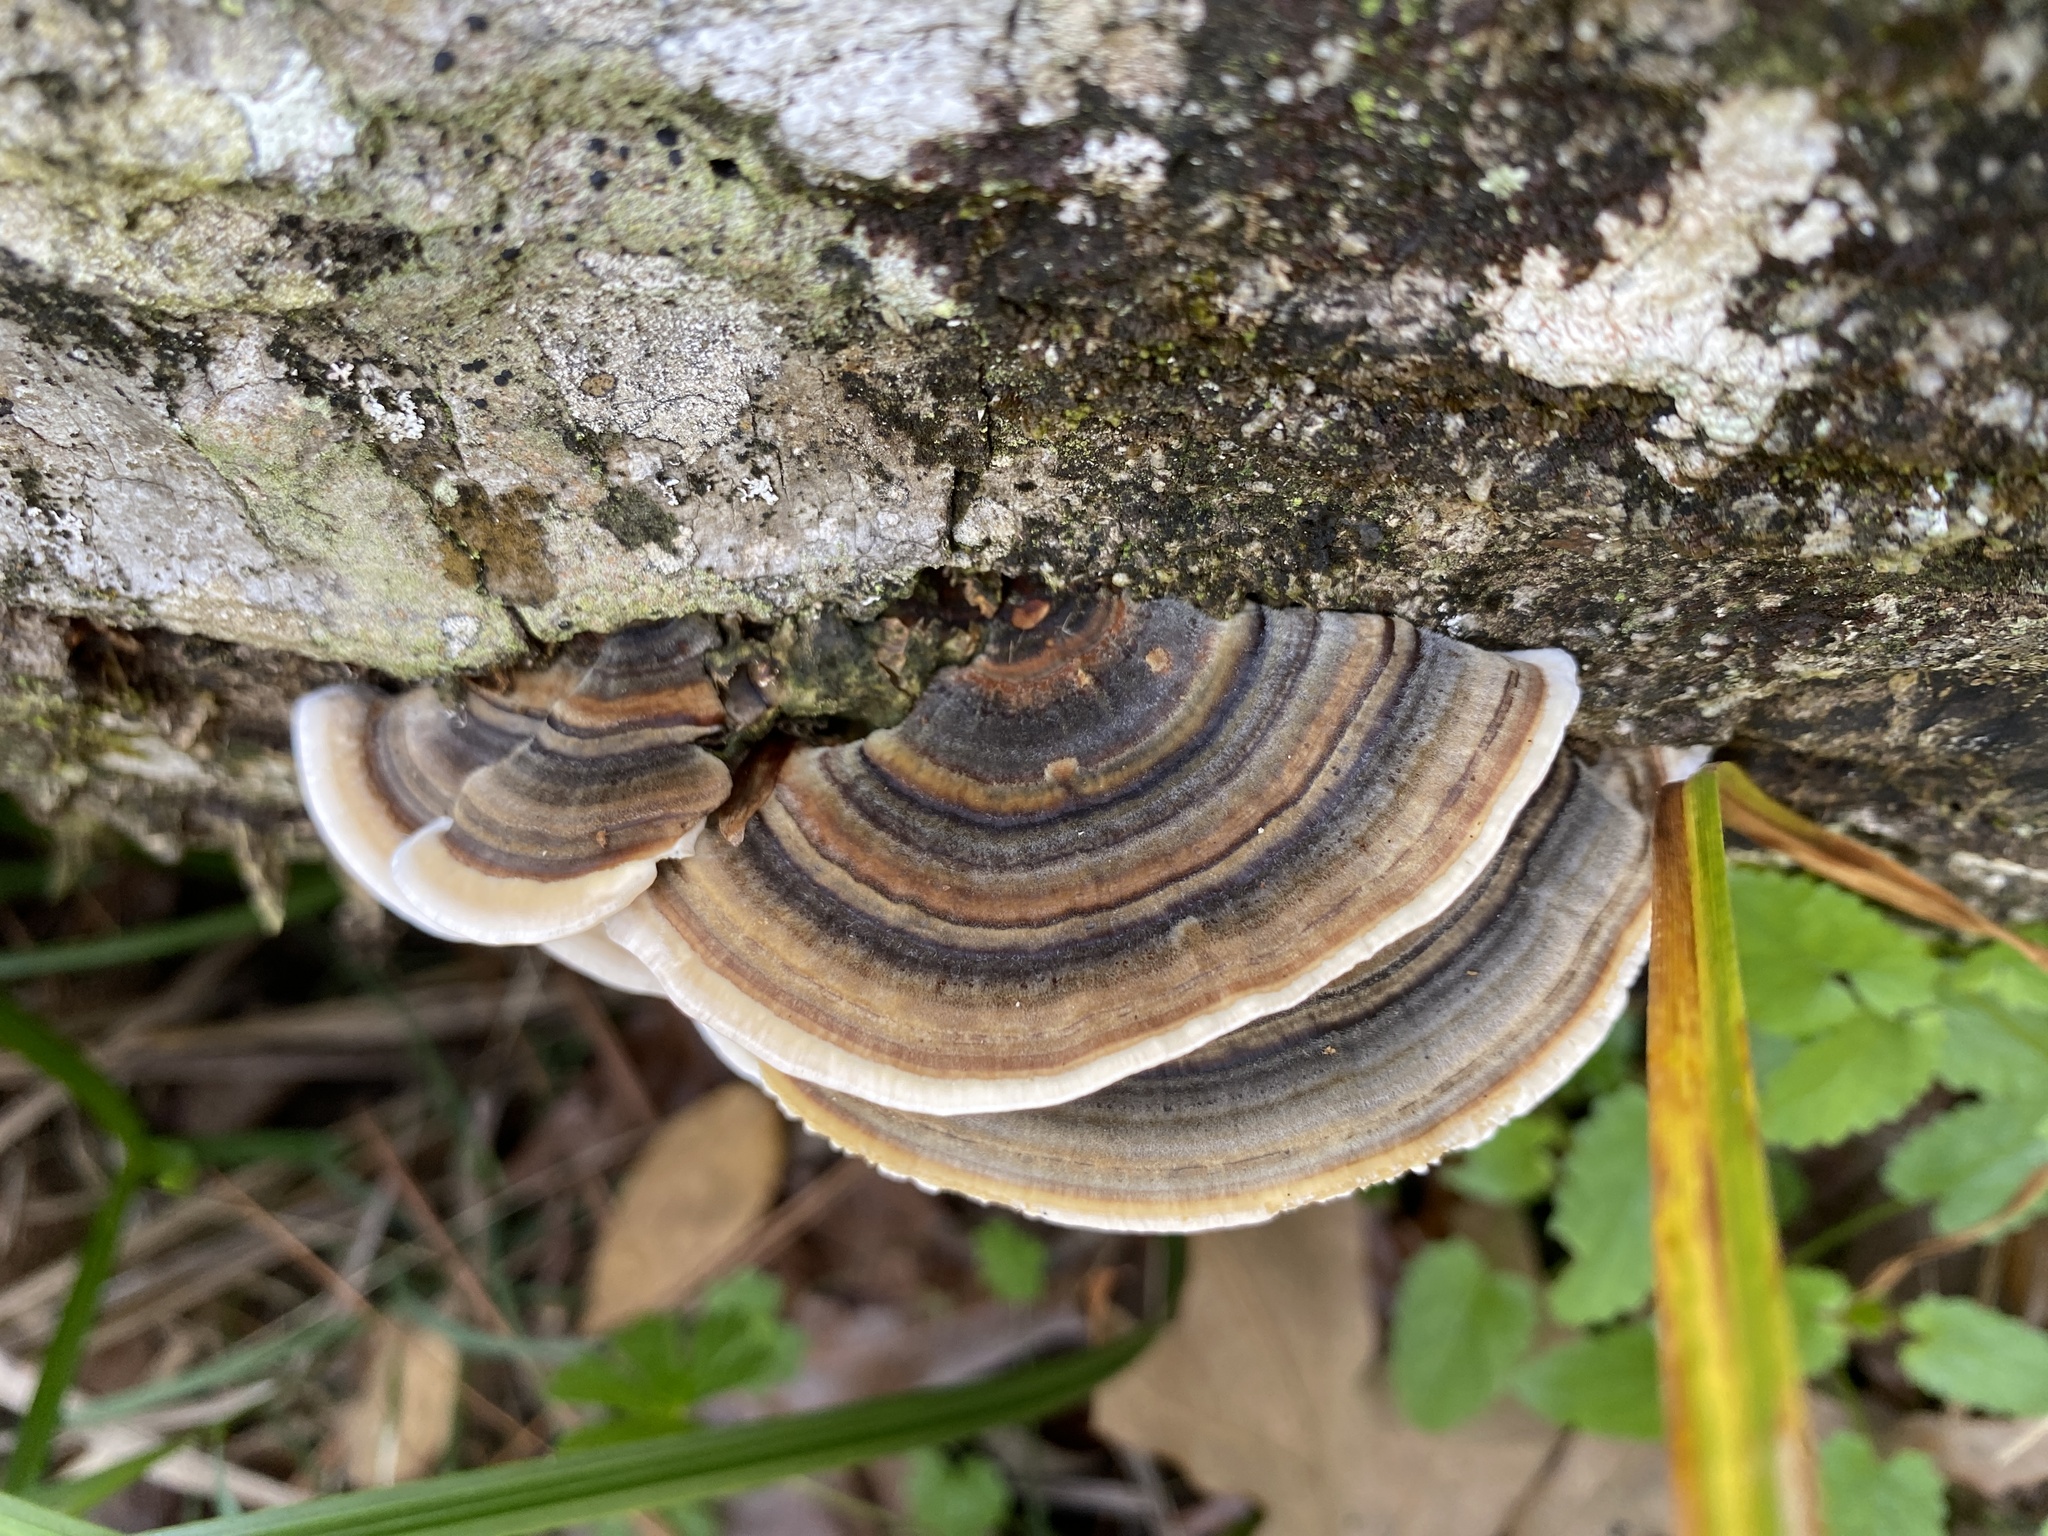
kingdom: Fungi
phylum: Basidiomycota
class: Agaricomycetes
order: Polyporales
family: Polyporaceae
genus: Trametes
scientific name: Trametes versicolor
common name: Turkeytail
